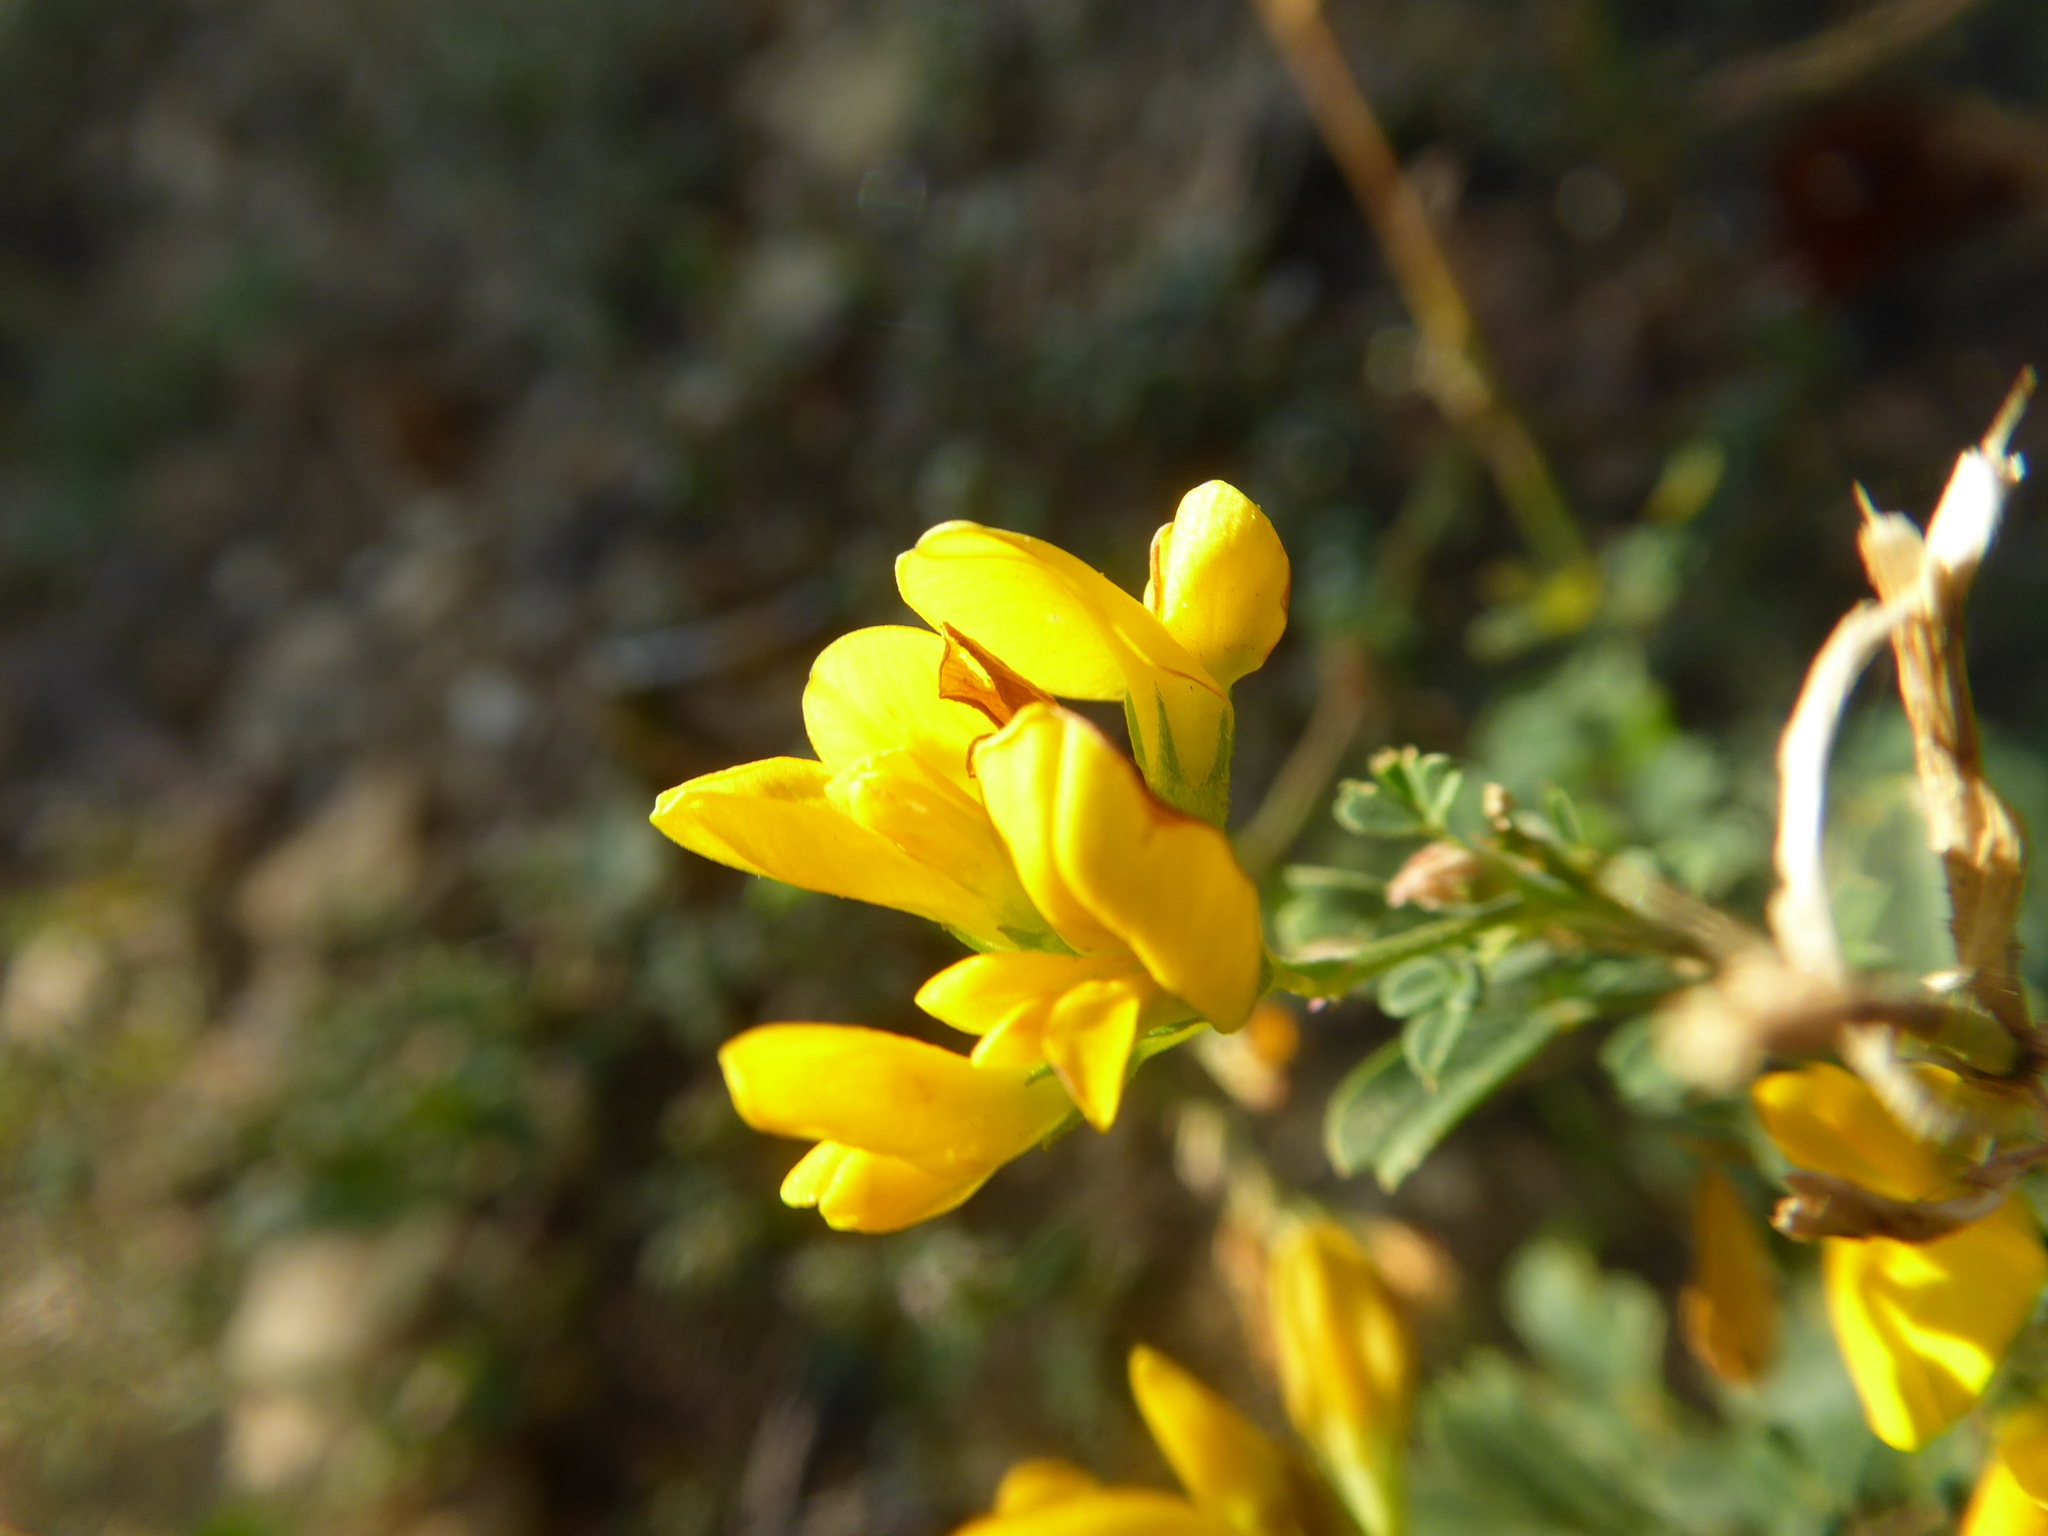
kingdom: Plantae
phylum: Tracheophyta
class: Magnoliopsida
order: Fabales
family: Fabaceae
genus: Medicago
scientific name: Medicago falcata
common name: Sickle medick
